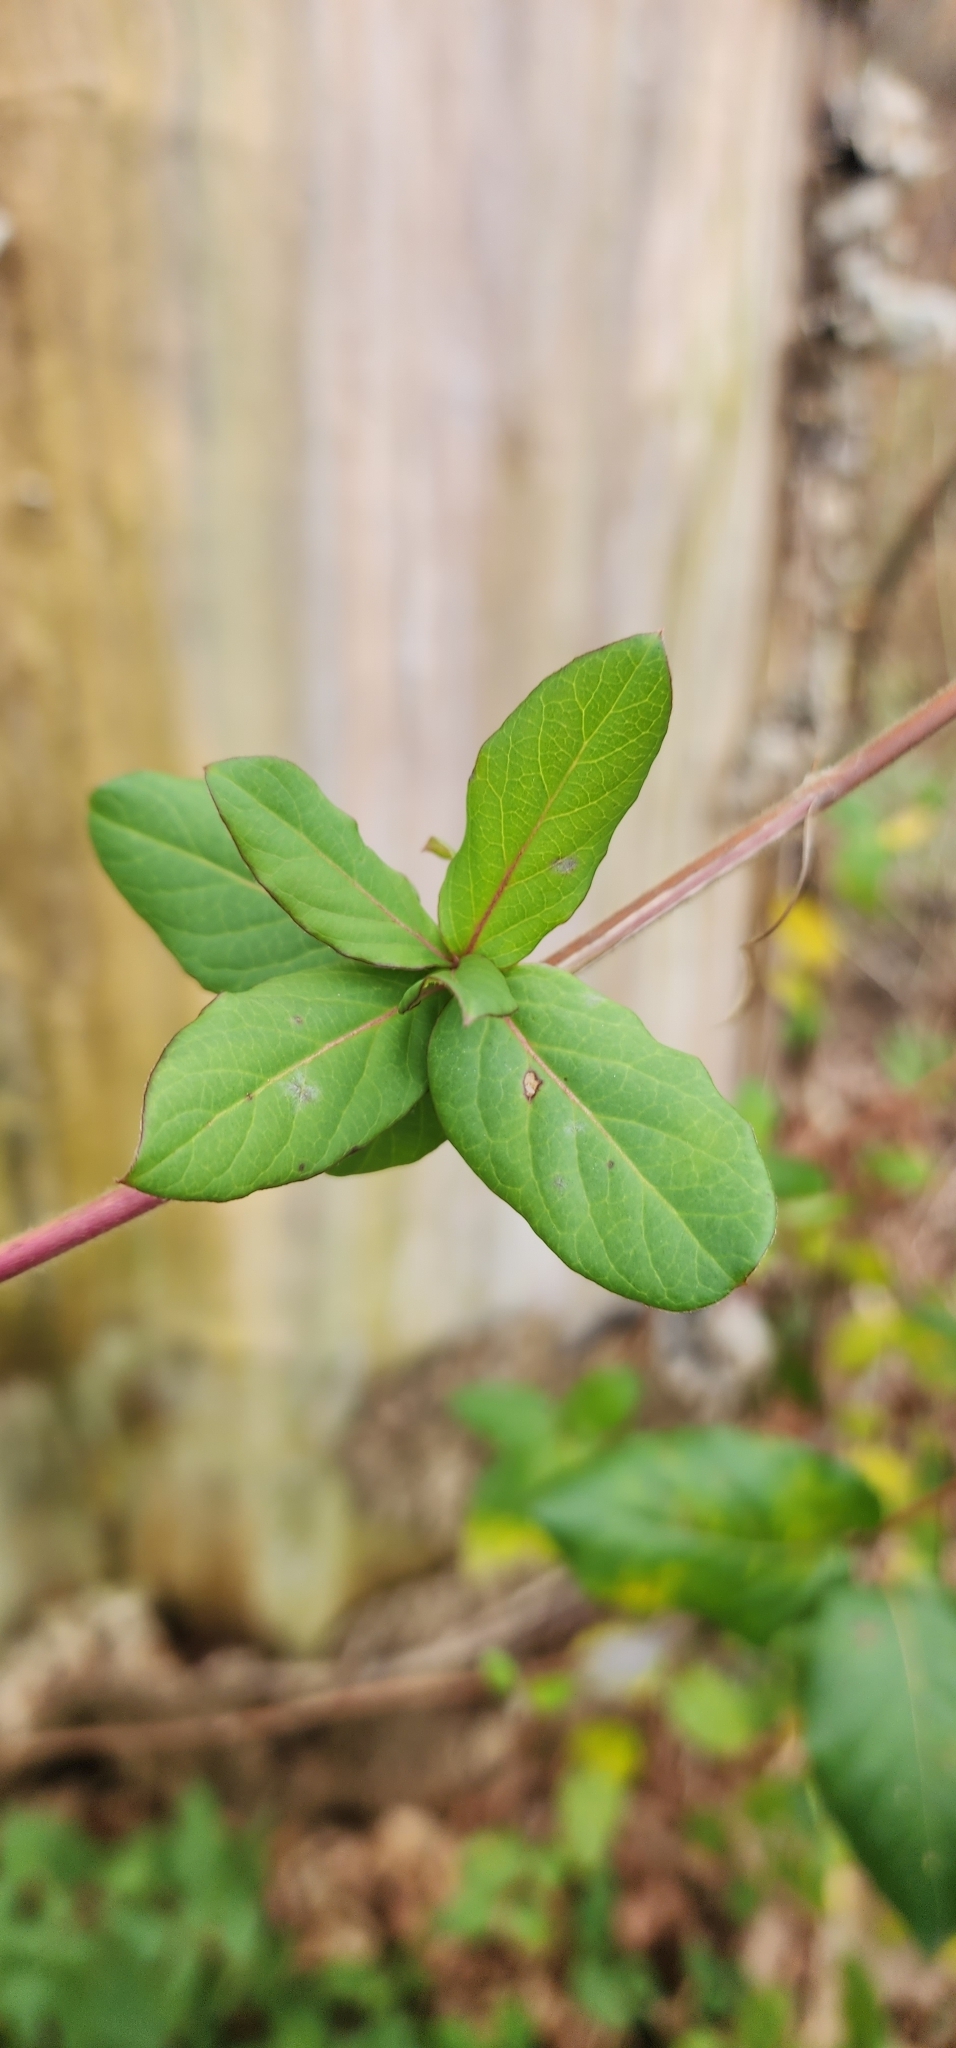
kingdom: Plantae
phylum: Tracheophyta
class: Magnoliopsida
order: Dipsacales
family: Caprifoliaceae
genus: Lonicera
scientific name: Lonicera japonica
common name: Japanese honeysuckle
